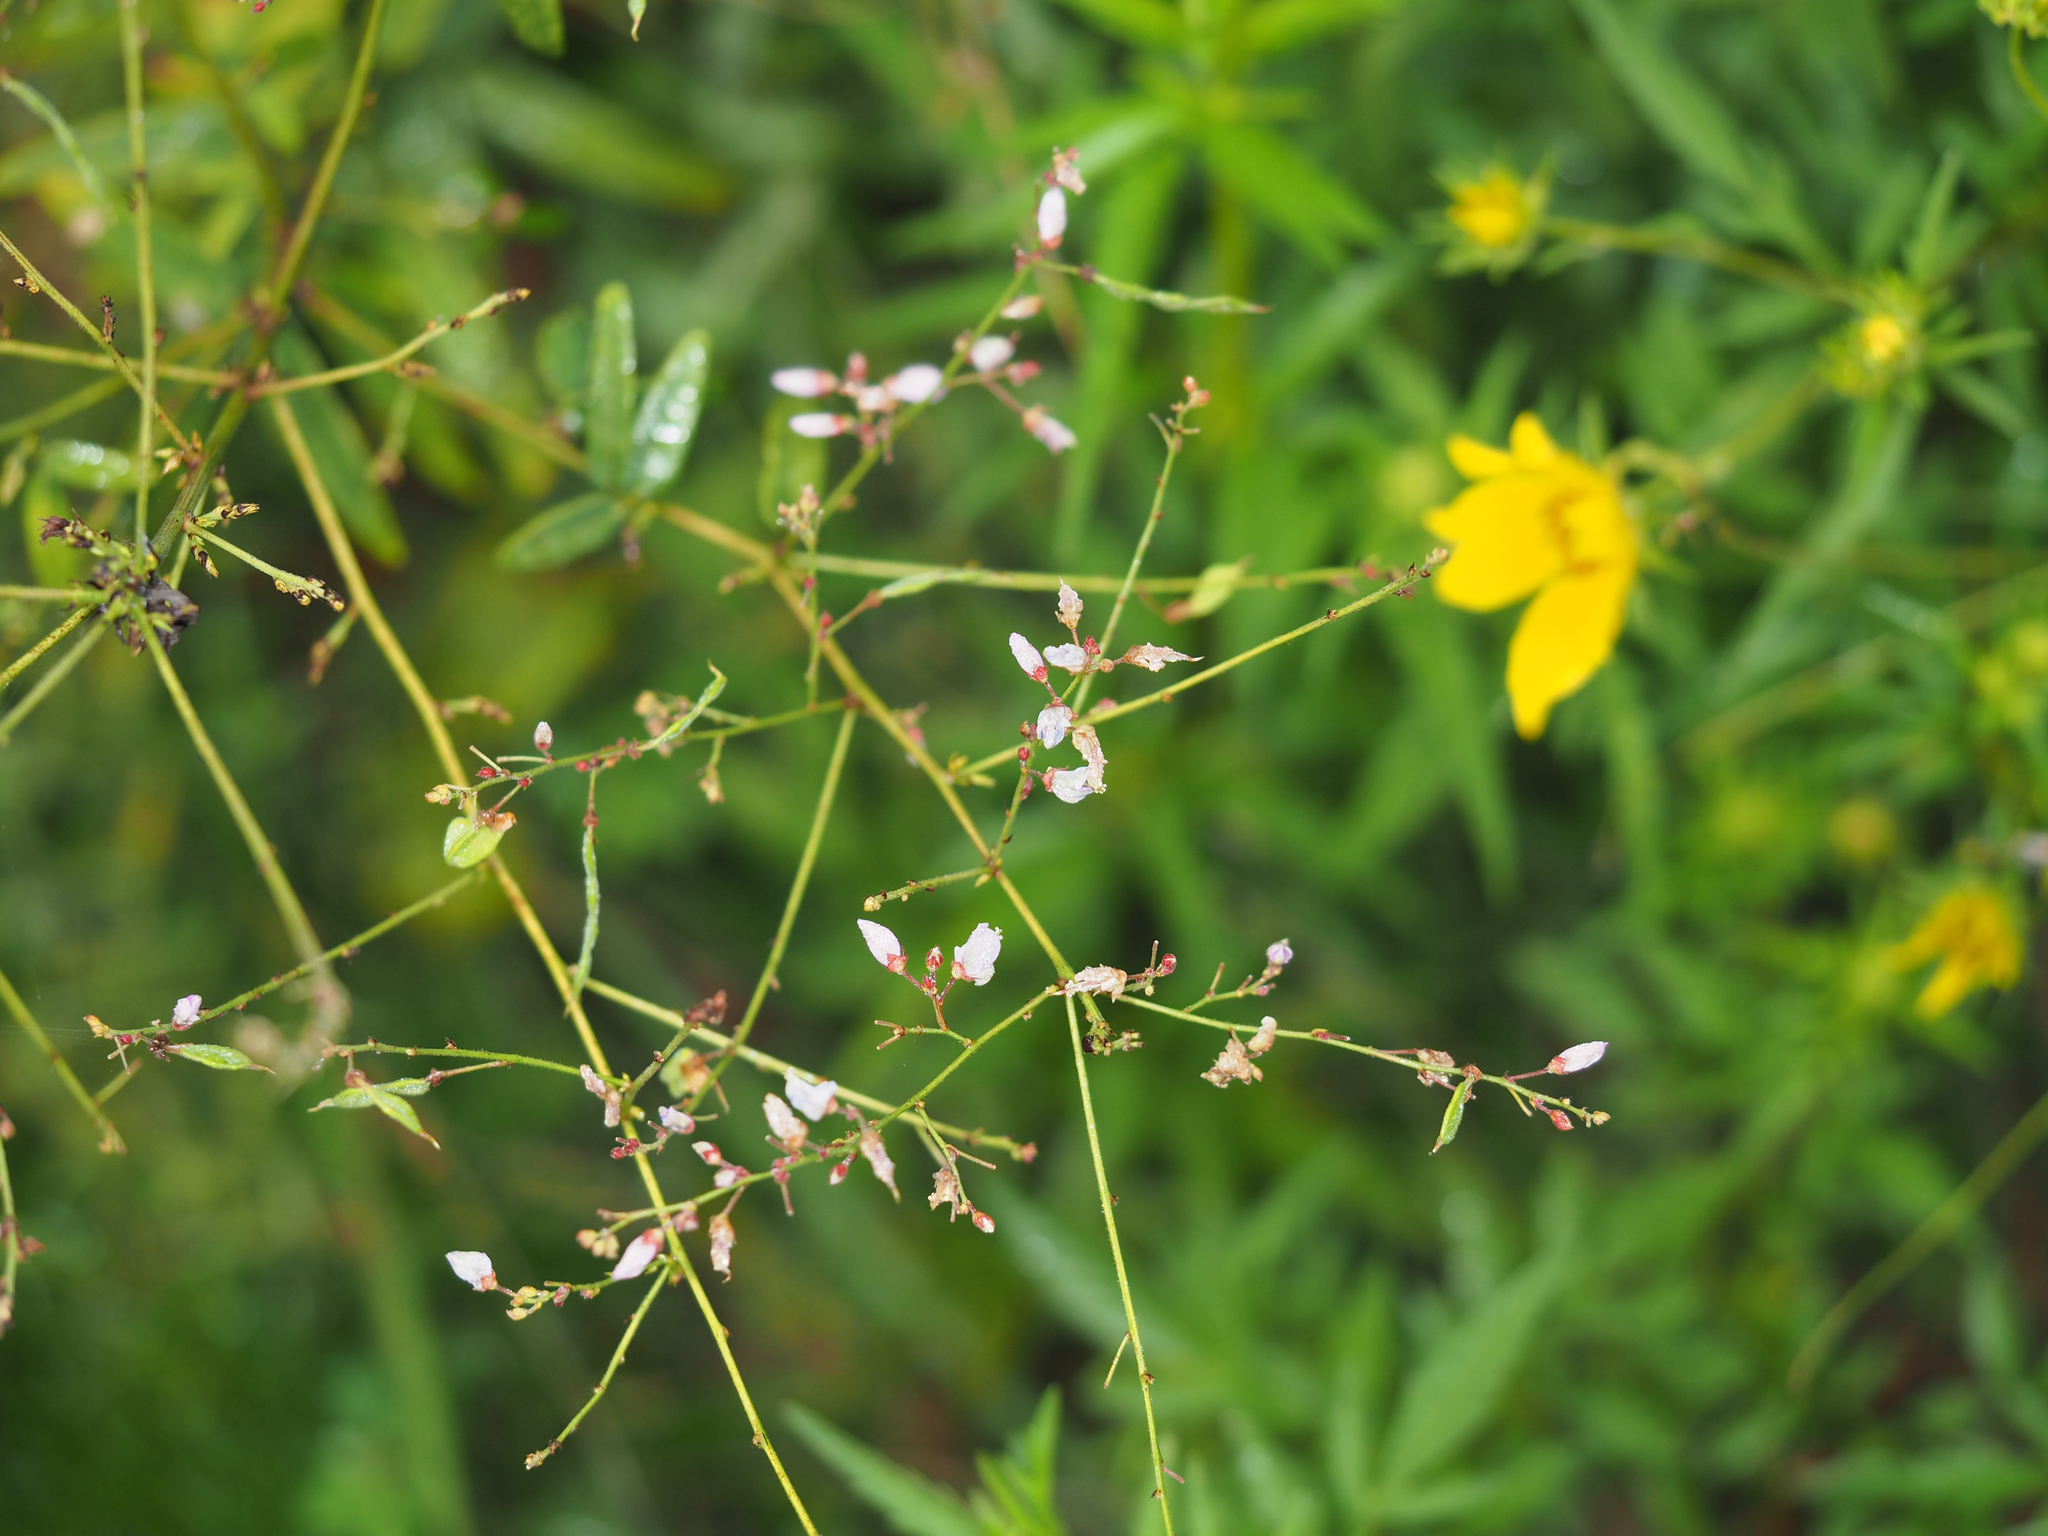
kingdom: Plantae
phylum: Tracheophyta
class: Magnoliopsida
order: Fabales
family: Fabaceae
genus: Desmodium
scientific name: Desmodium paniculatum
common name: Panicled tick-clover
